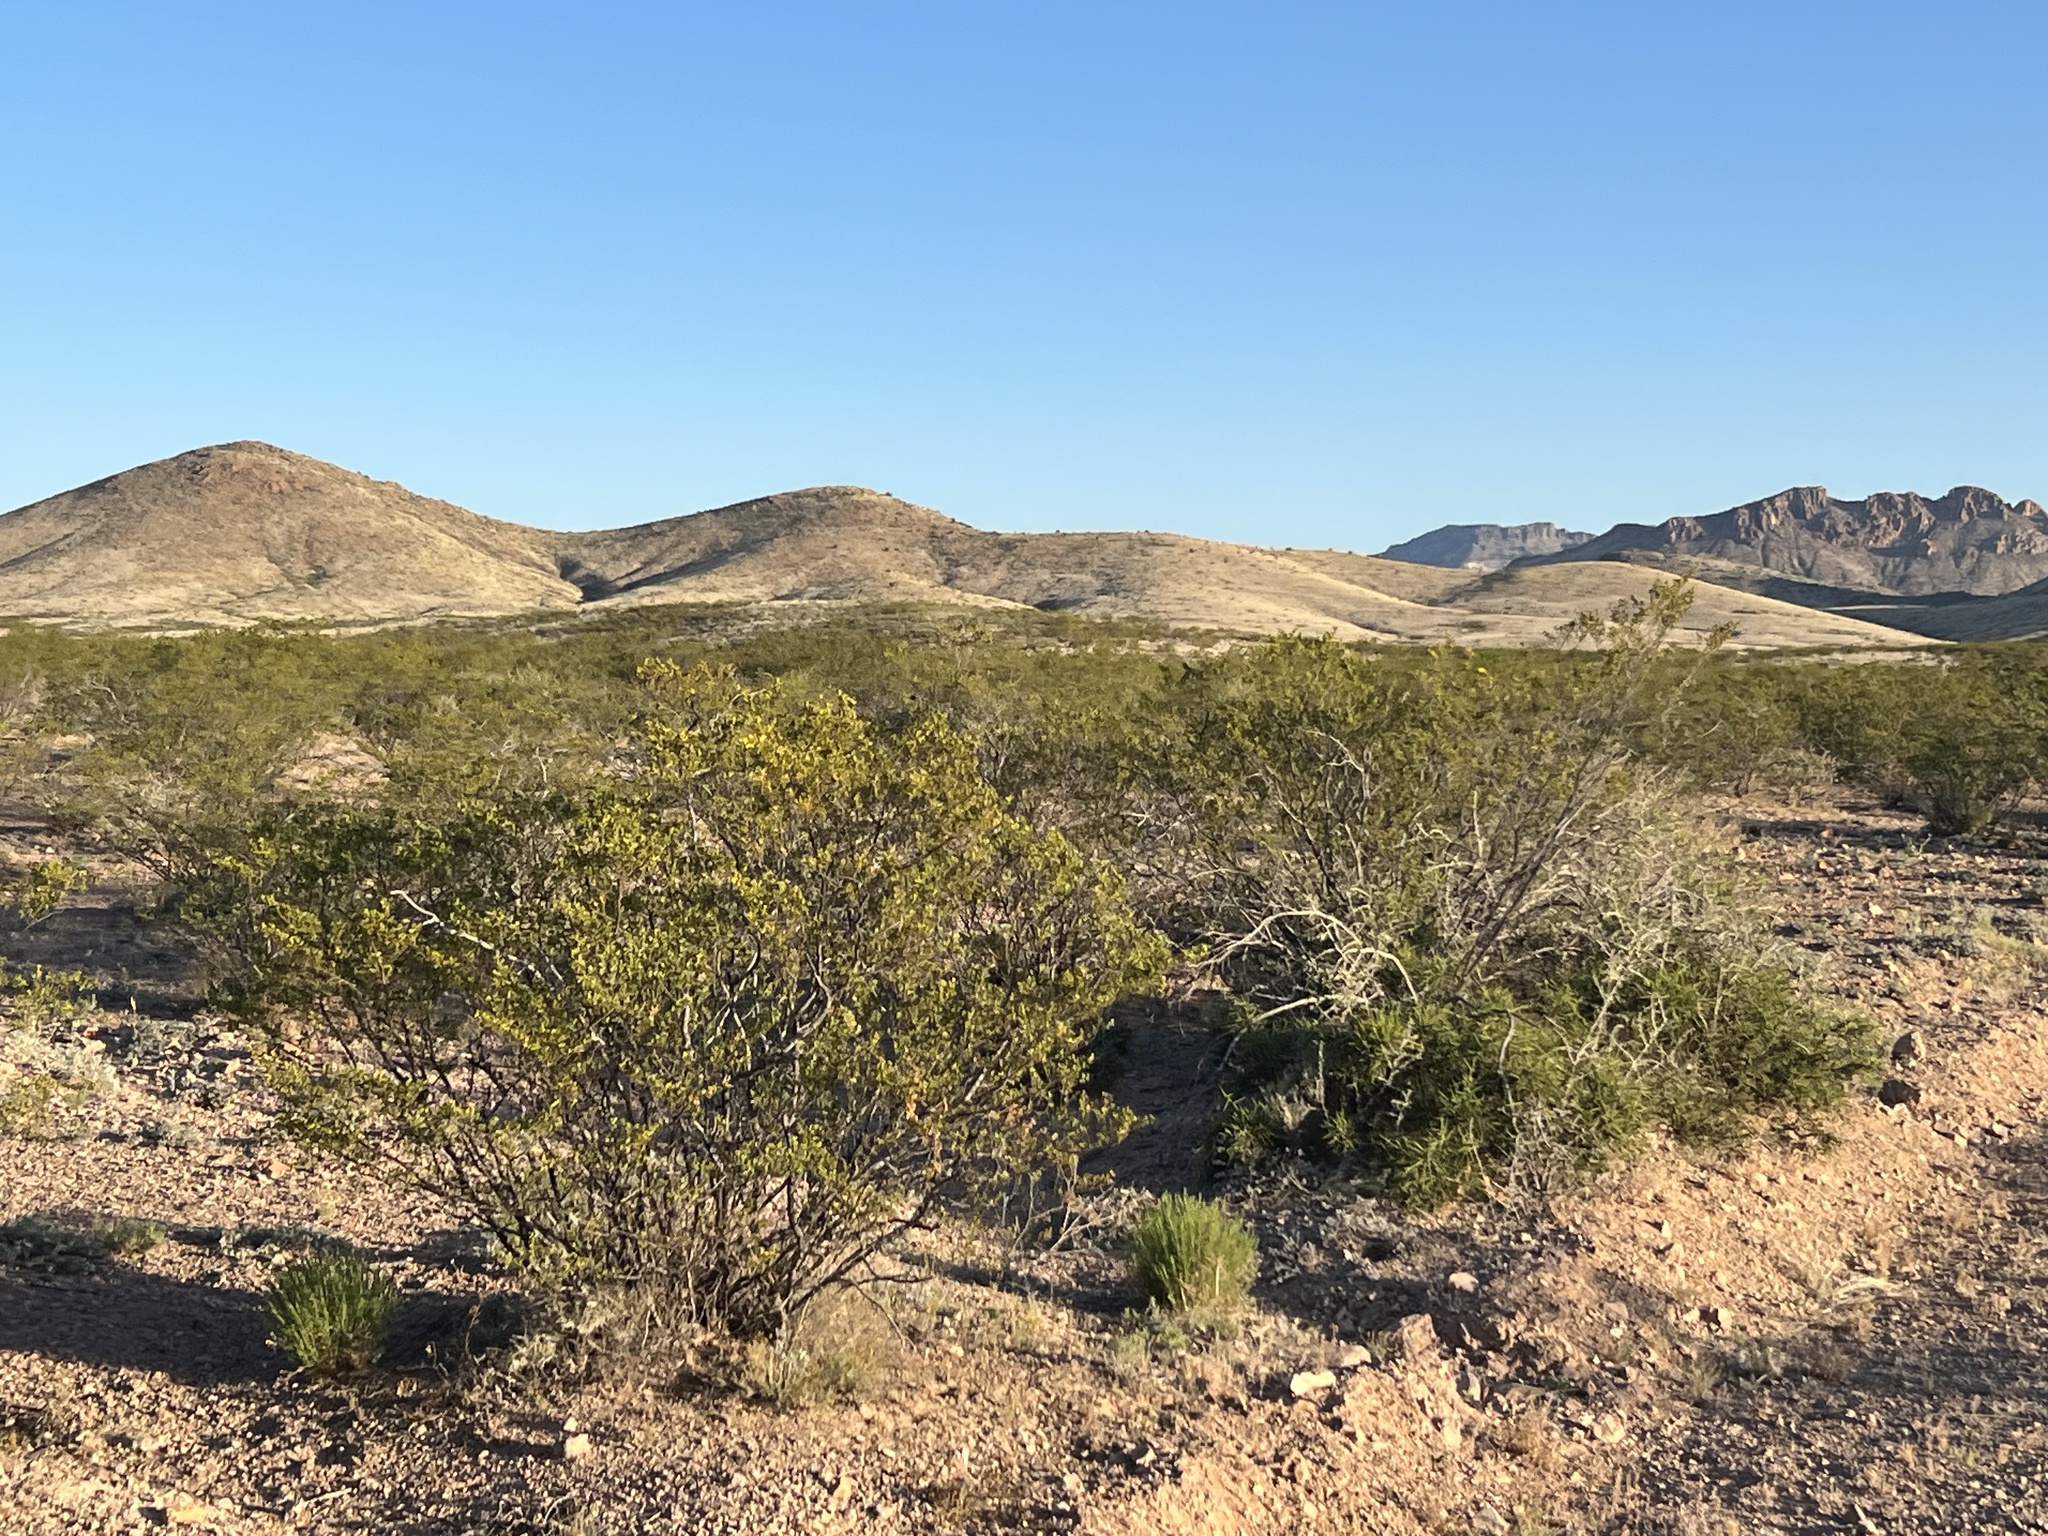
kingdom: Plantae
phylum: Tracheophyta
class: Magnoliopsida
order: Zygophyllales
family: Zygophyllaceae
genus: Larrea
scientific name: Larrea tridentata
